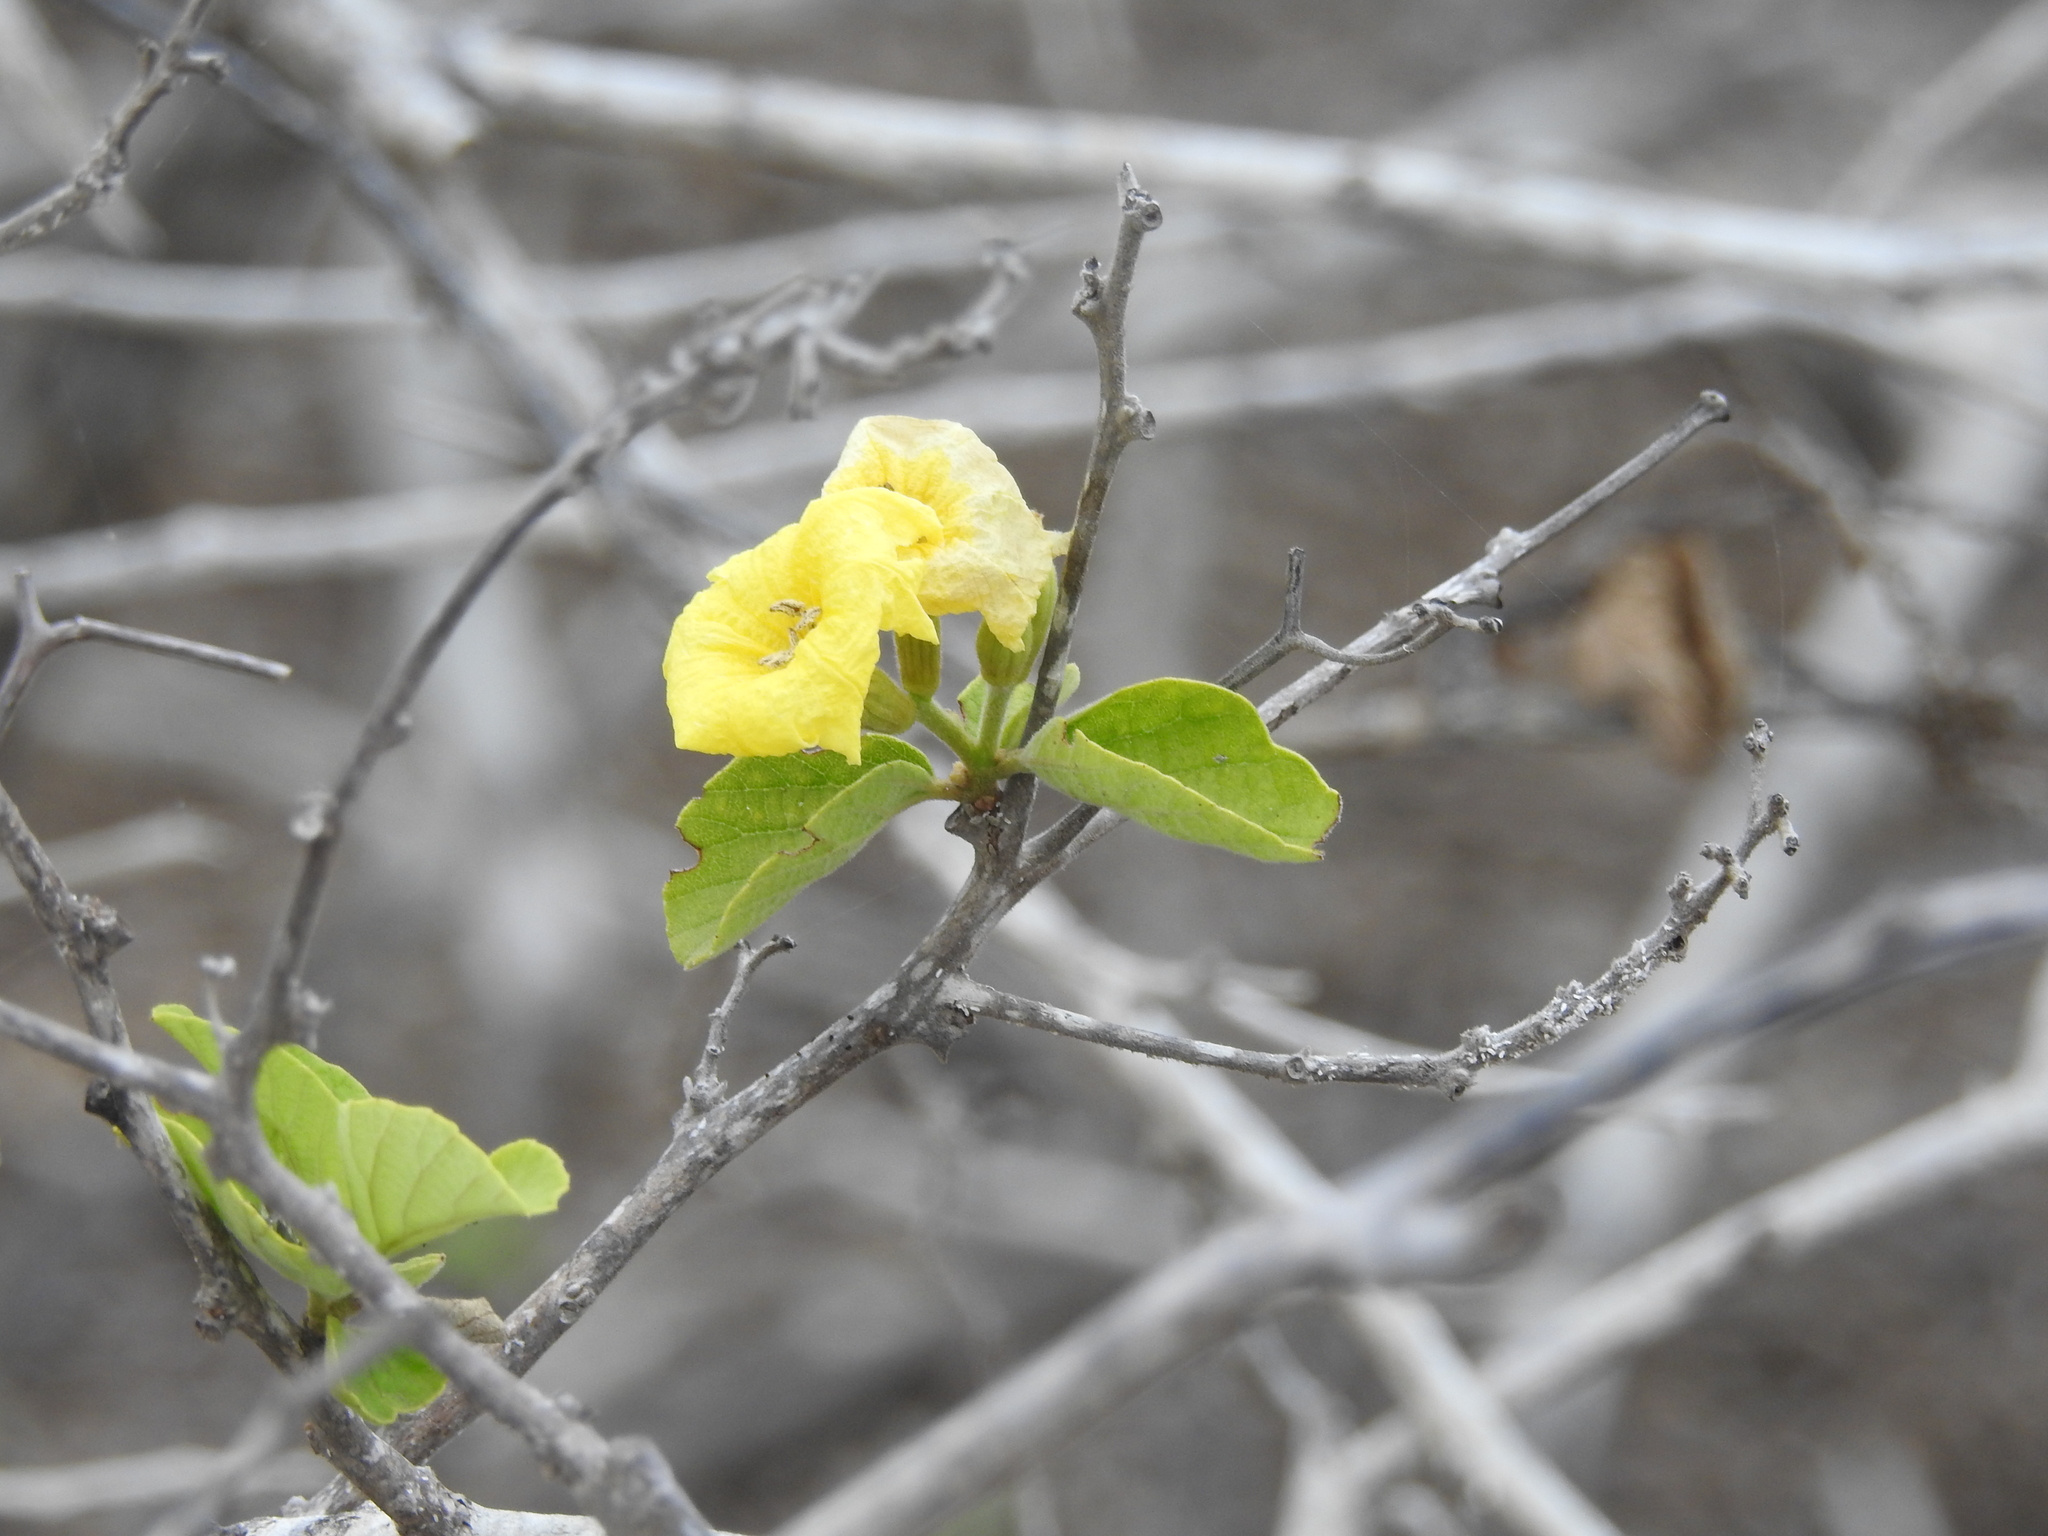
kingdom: Plantae
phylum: Tracheophyta
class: Magnoliopsida
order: Boraginales
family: Cordiaceae
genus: Cordia
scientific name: Cordia lutea
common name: Yellow geiger
